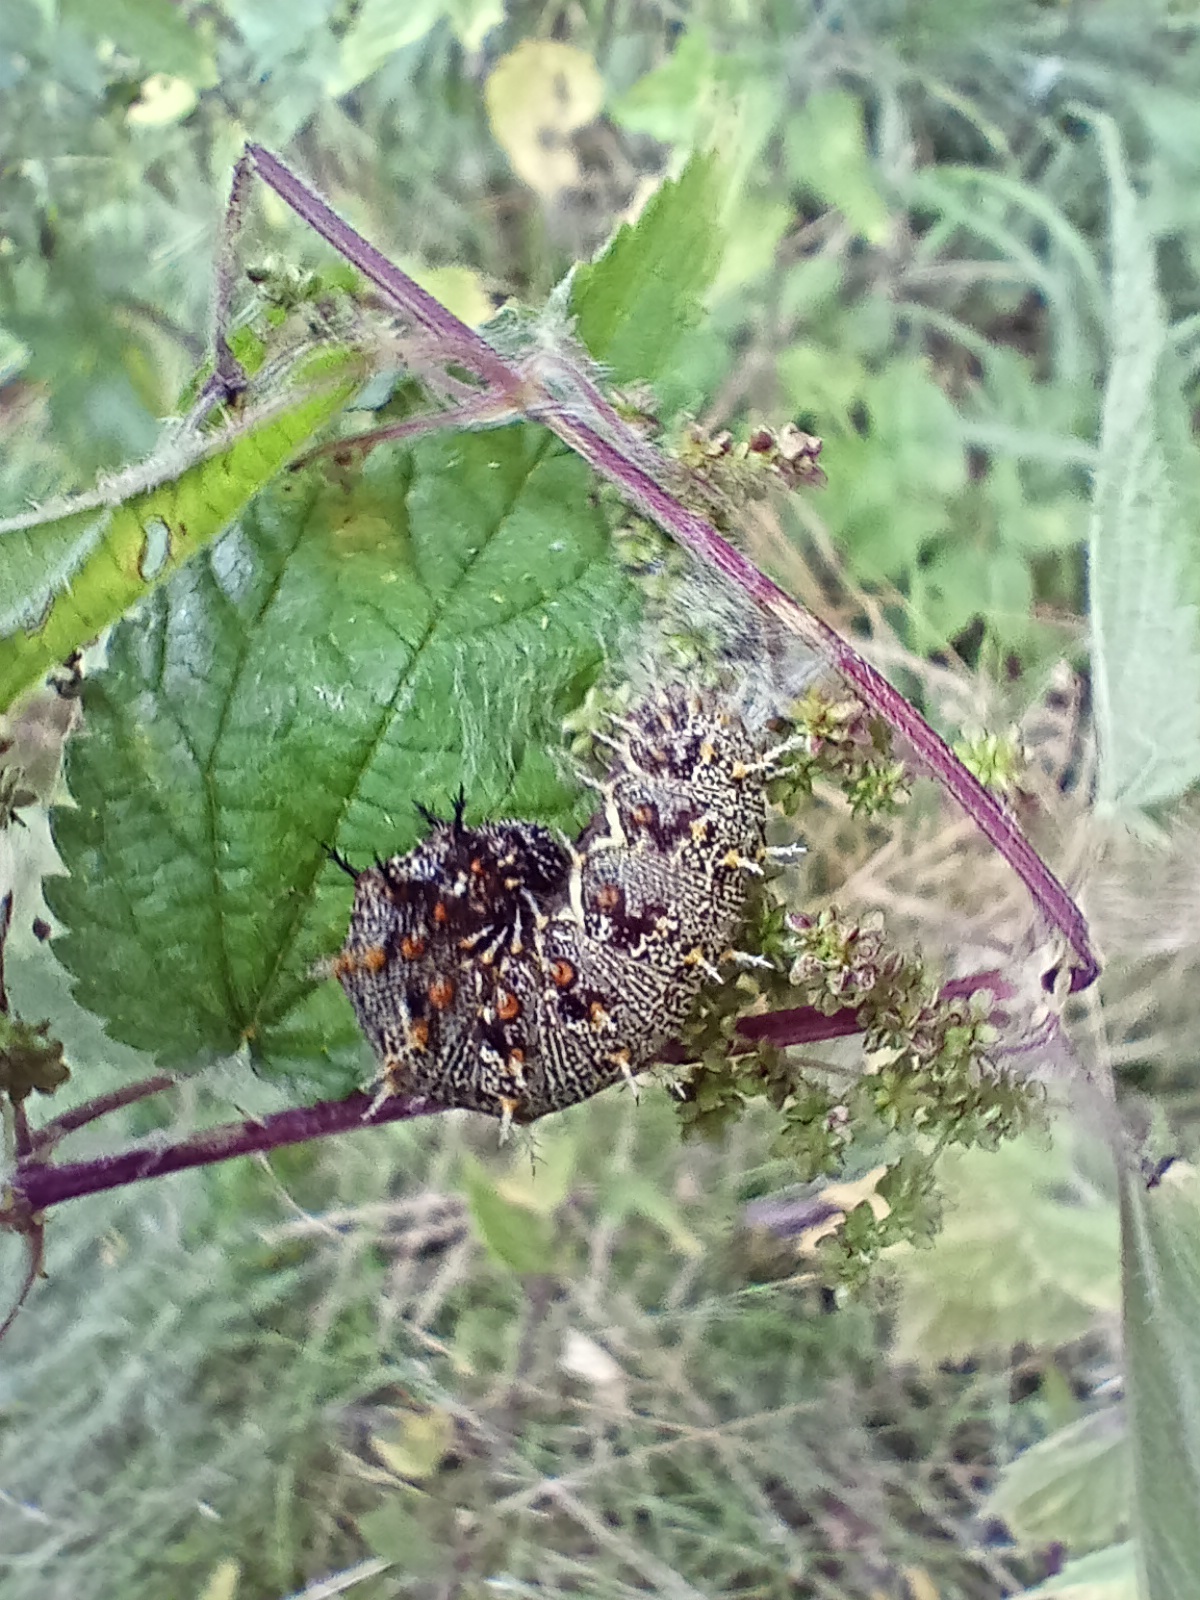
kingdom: Animalia
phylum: Arthropoda
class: Insecta
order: Lepidoptera
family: Nymphalidae
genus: Vanessa
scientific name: Vanessa atalanta
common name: Red admiral
